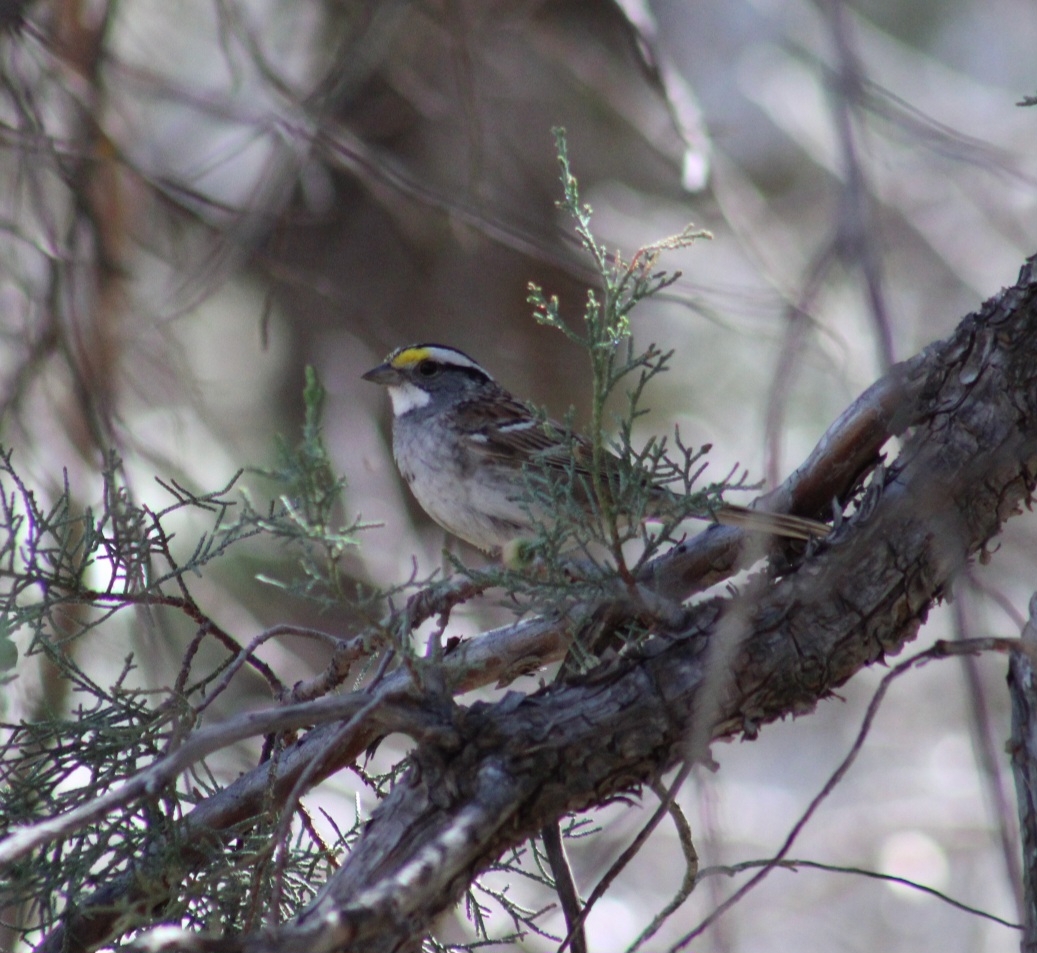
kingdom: Animalia
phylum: Chordata
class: Aves
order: Passeriformes
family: Passerellidae
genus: Zonotrichia
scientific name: Zonotrichia albicollis
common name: White-throated sparrow
